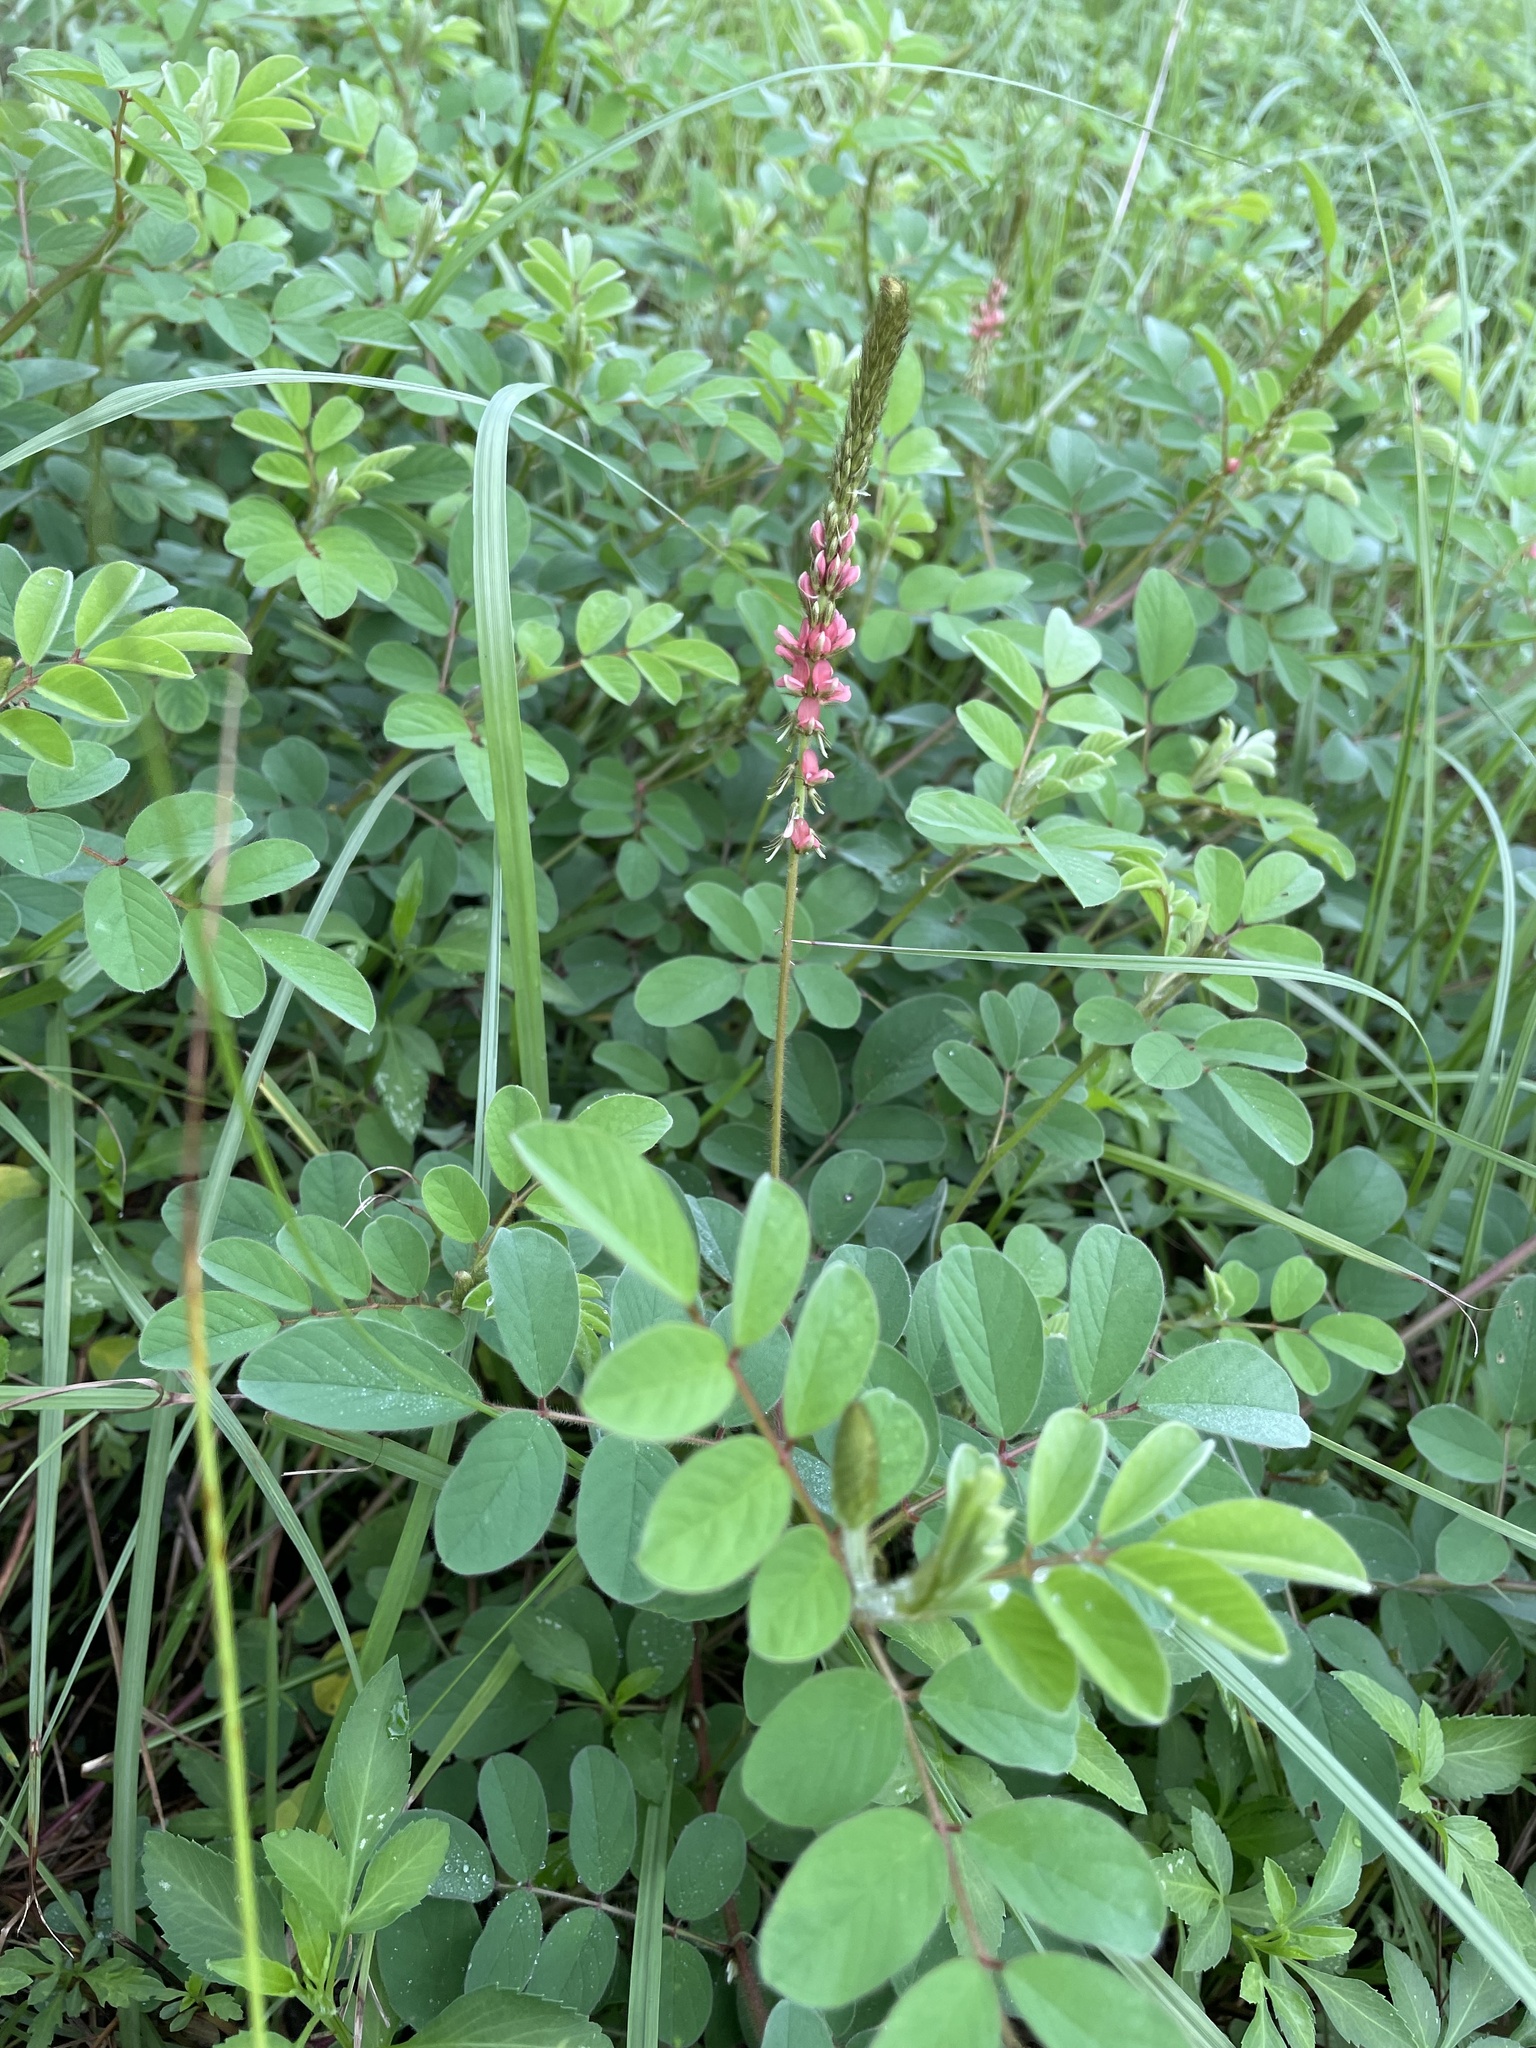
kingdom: Plantae
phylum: Tracheophyta
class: Magnoliopsida
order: Fabales
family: Fabaceae
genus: Indigofera
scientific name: Indigofera hirsuta
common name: Hairy indigo
